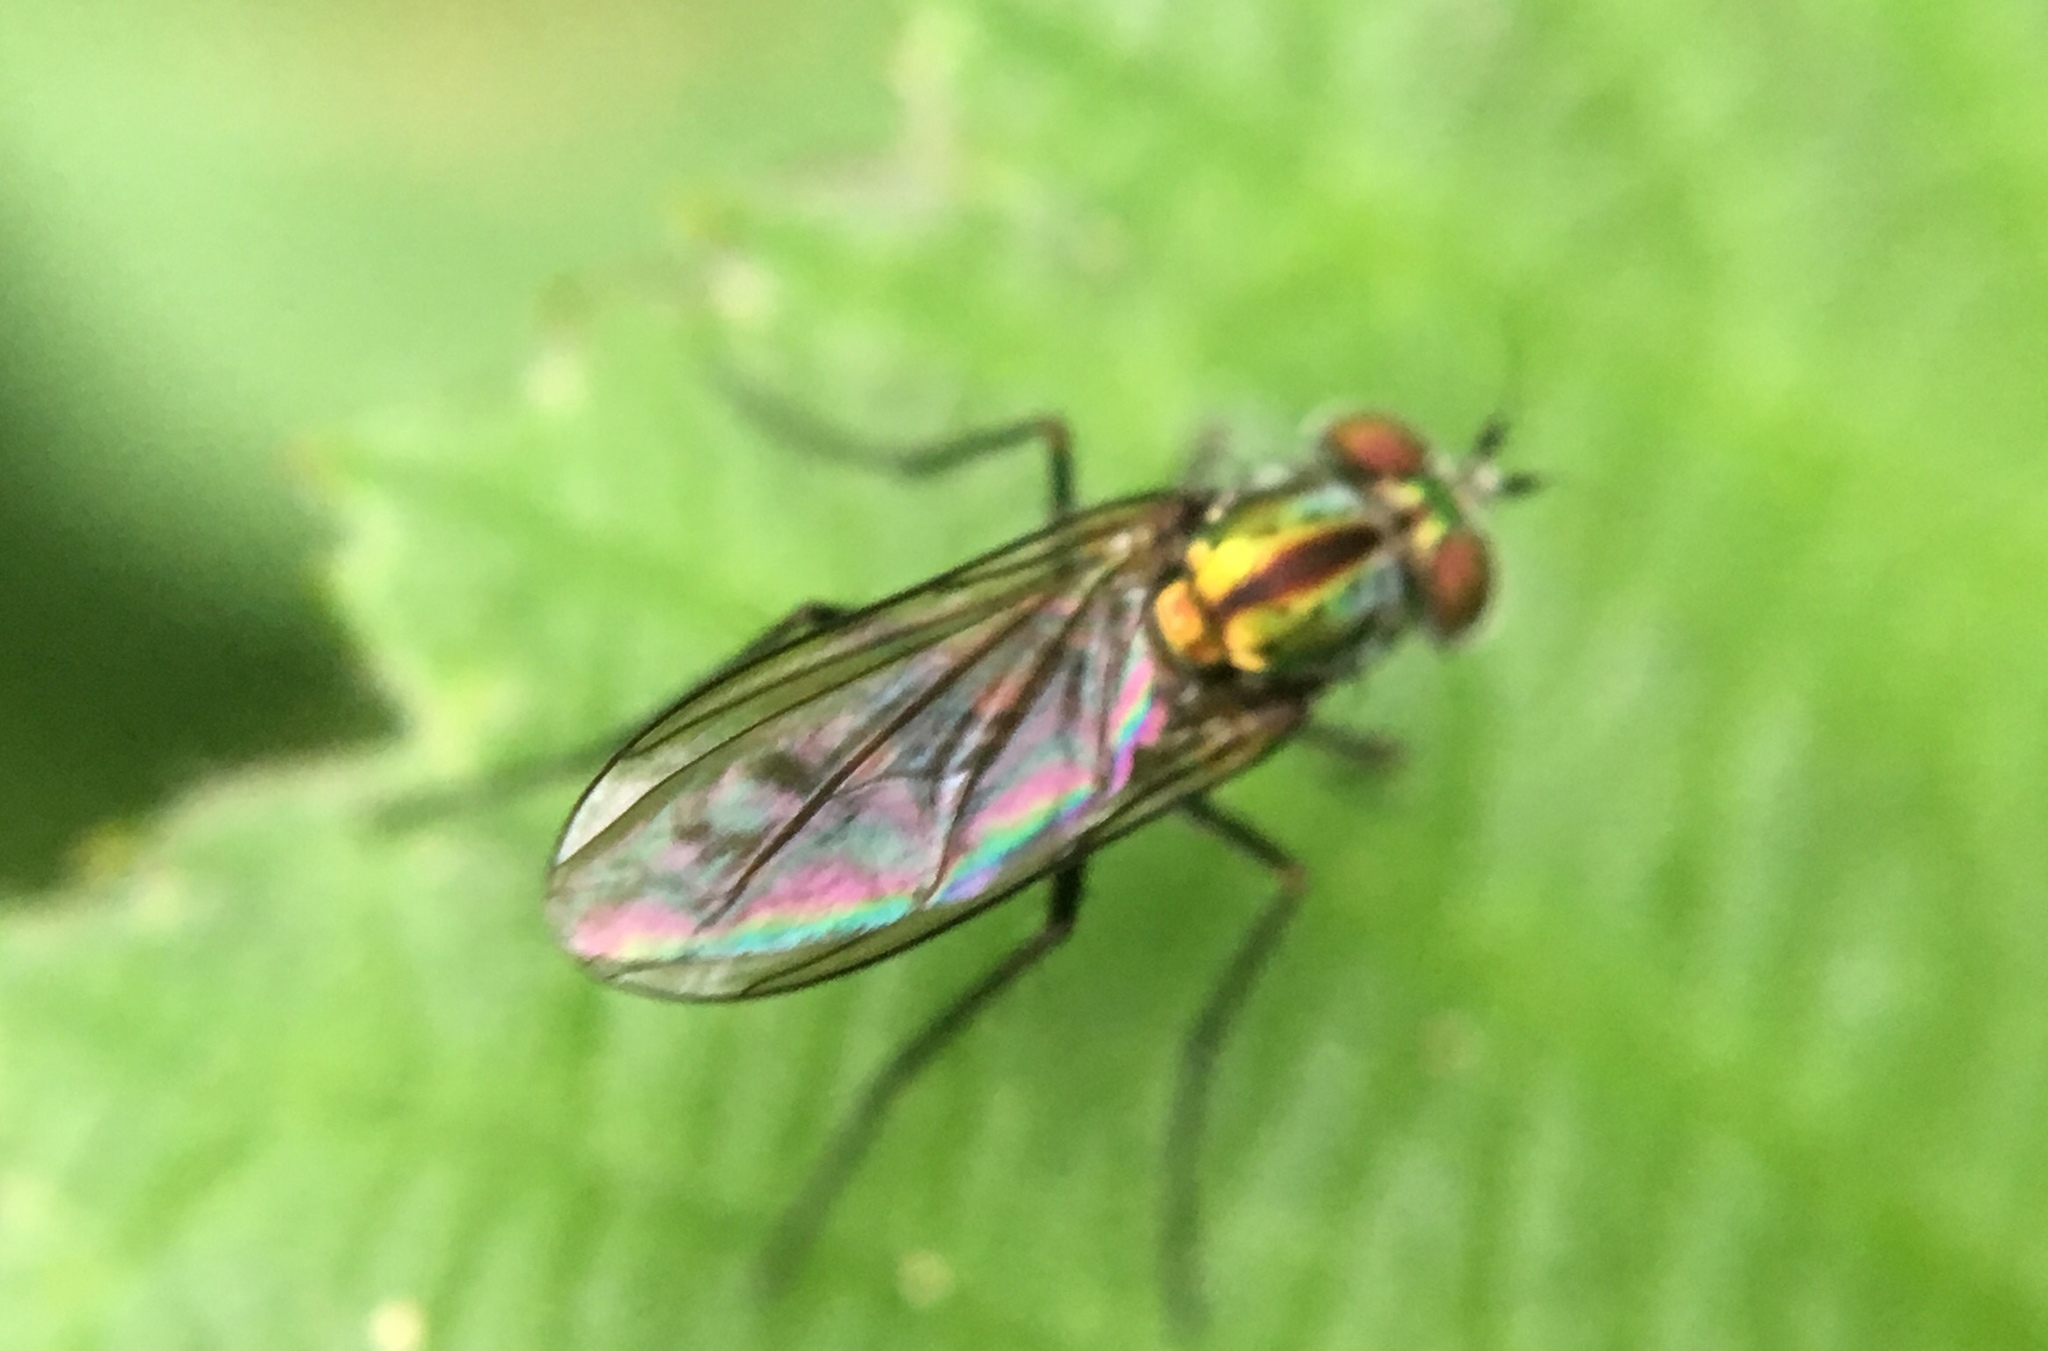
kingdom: Animalia
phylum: Arthropoda
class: Insecta
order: Diptera
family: Dolichopodidae
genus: Plagioneurus
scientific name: Plagioneurus univittatus
